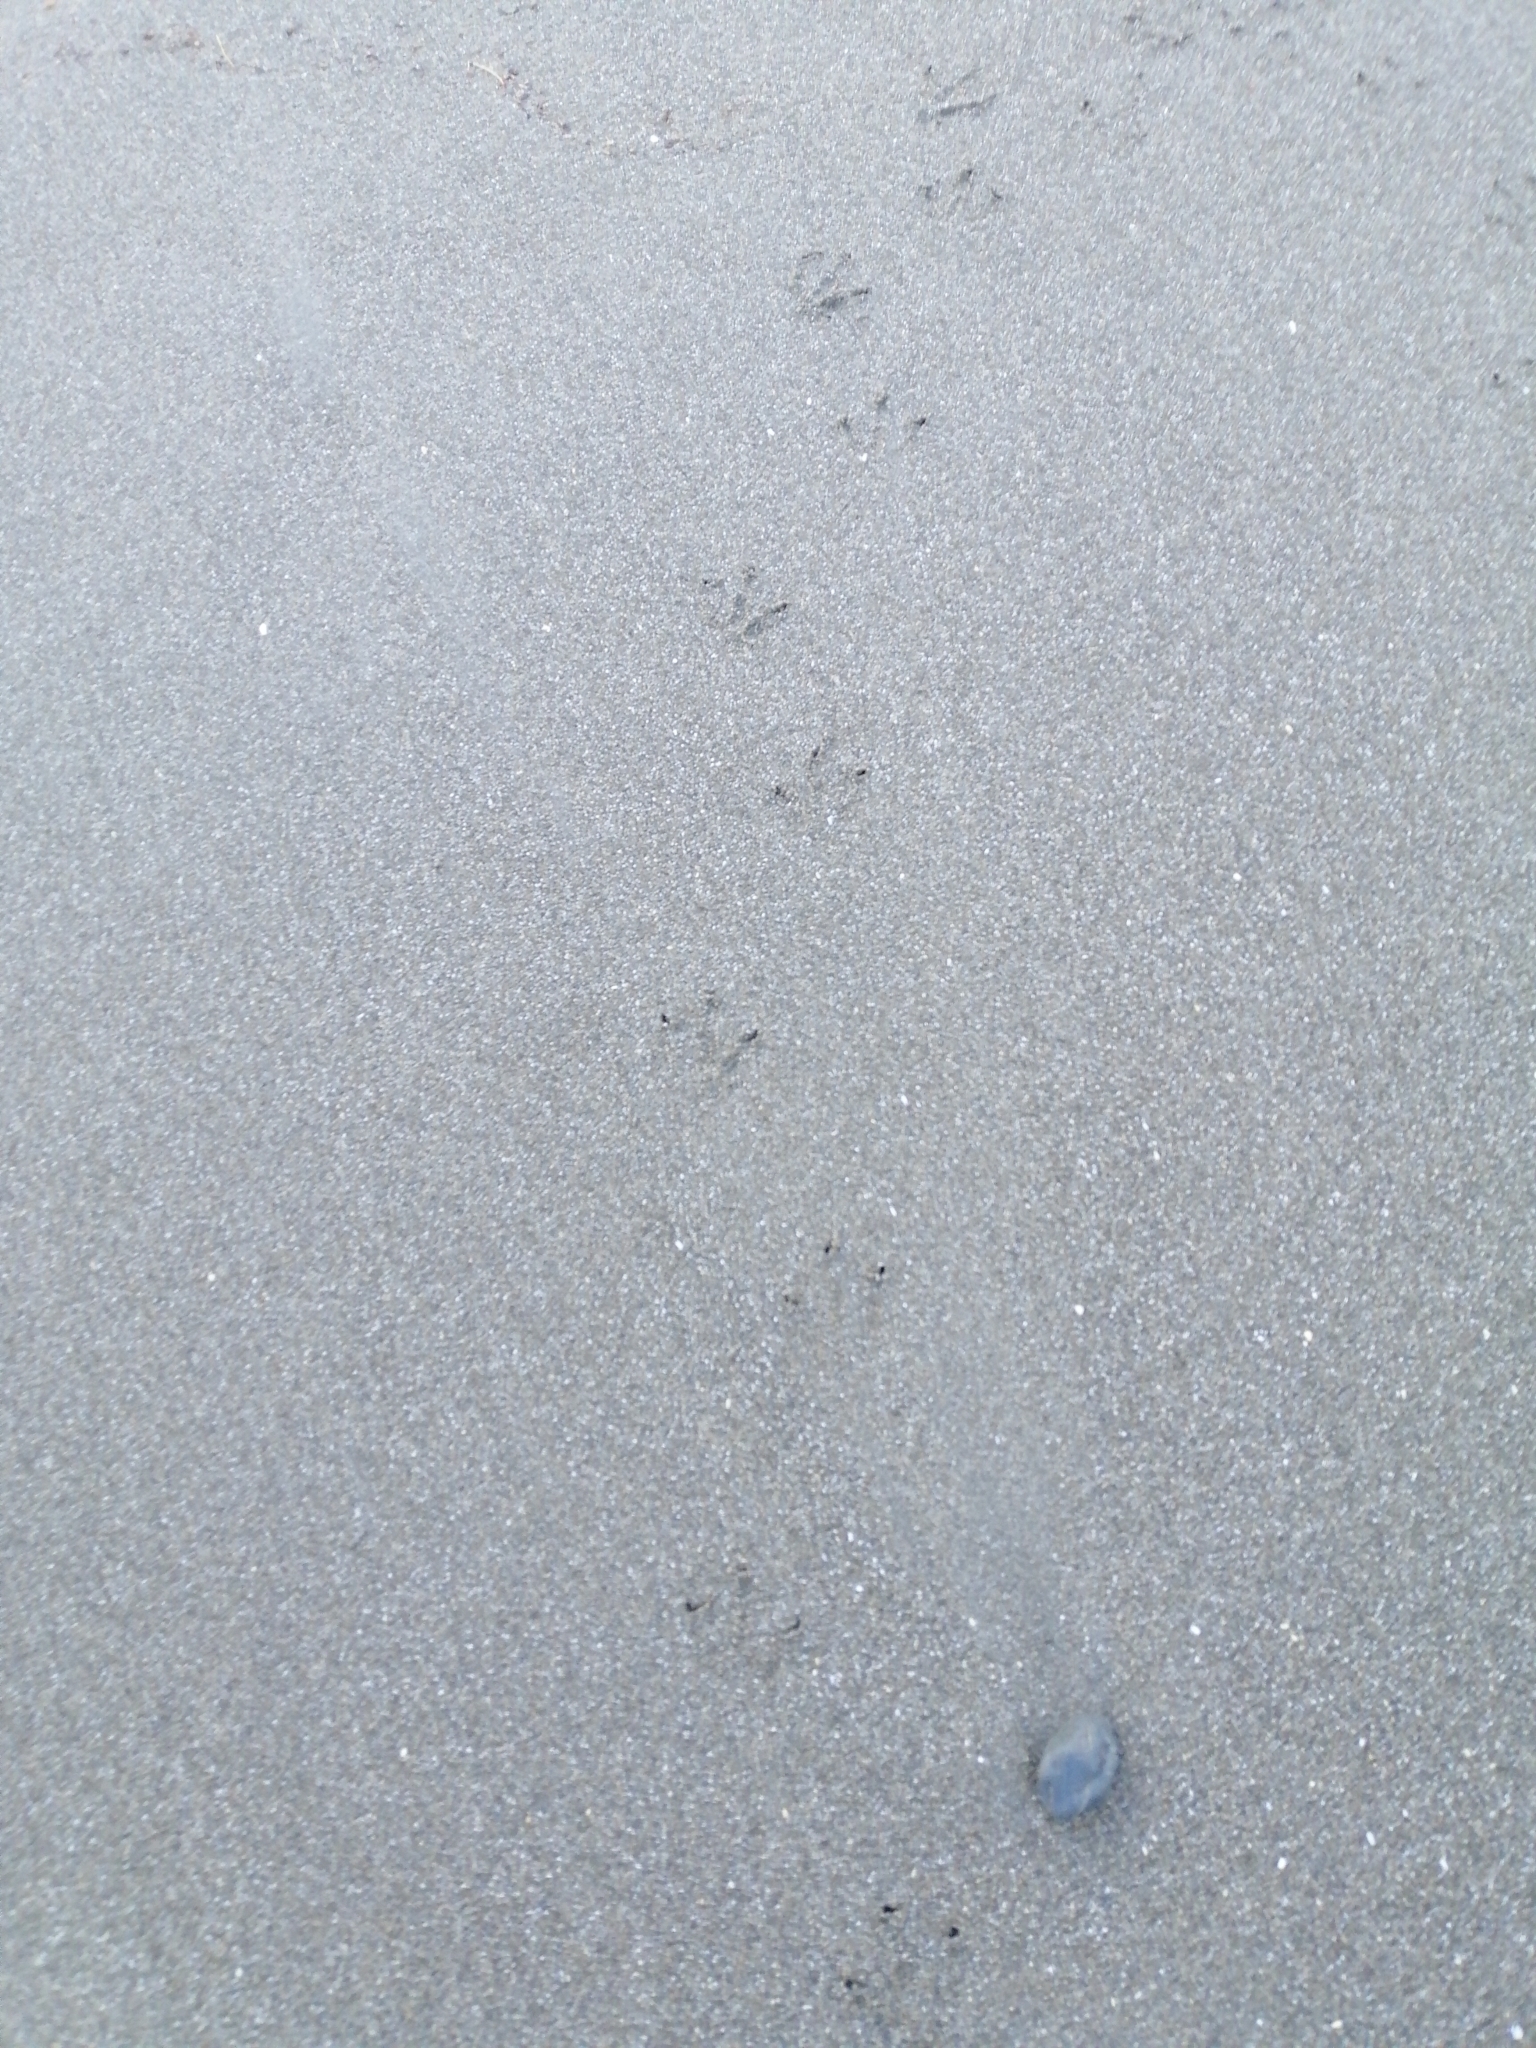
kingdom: Animalia
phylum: Chordata
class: Aves
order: Sphenisciformes
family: Spheniscidae
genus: Eudyptula
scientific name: Eudyptula minor
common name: Little penguin
